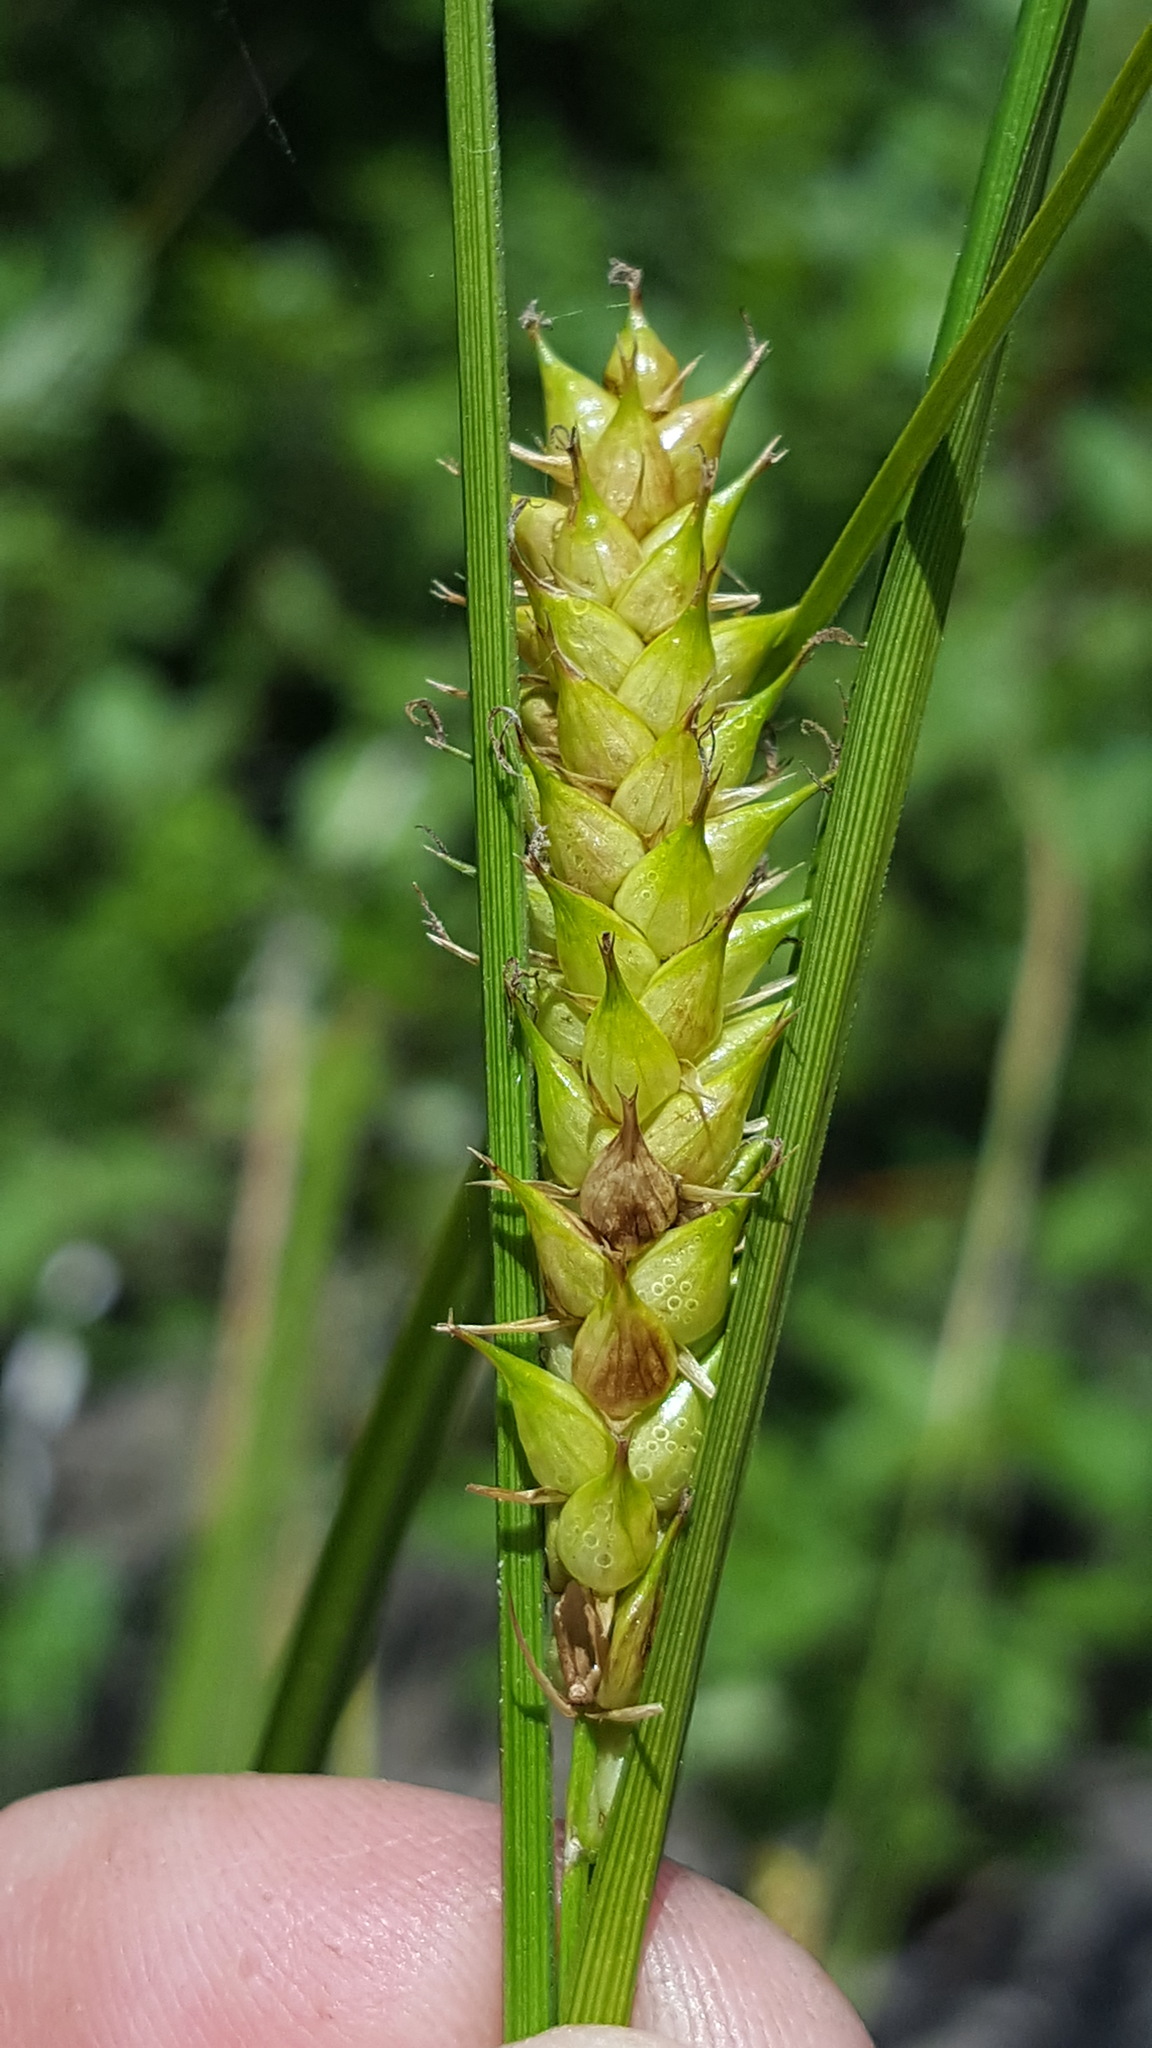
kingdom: Plantae
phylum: Tracheophyta
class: Liliopsida
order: Poales
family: Cyperaceae
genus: Carex
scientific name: Carex utriculata
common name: Beaked sedge
